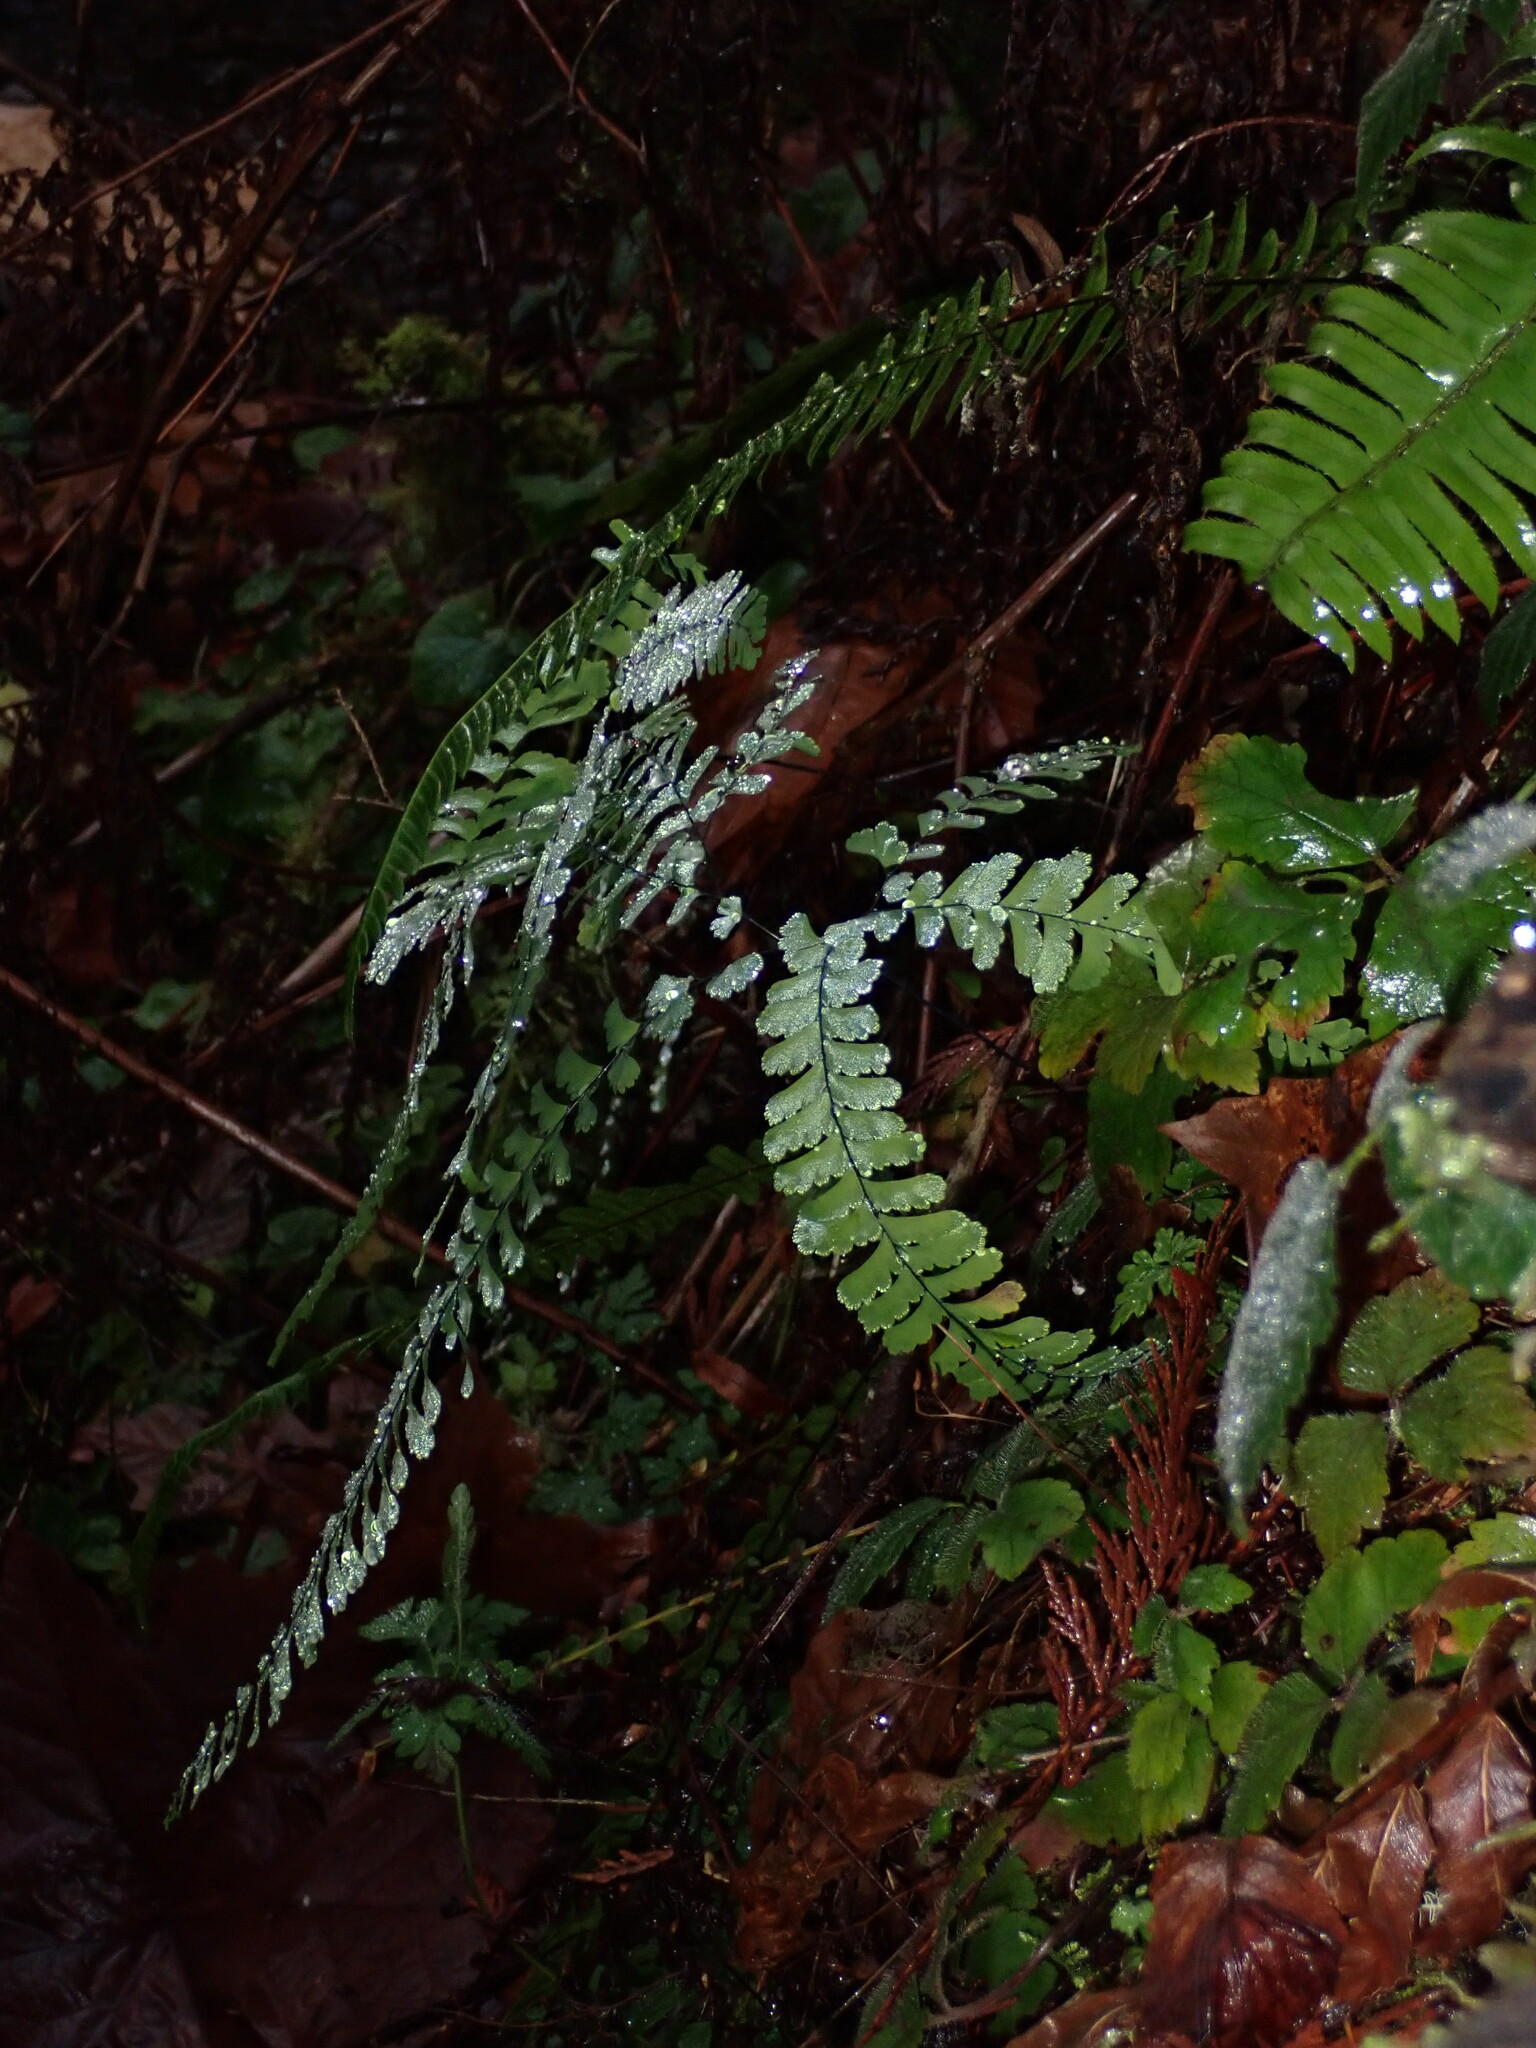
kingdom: Plantae
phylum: Tracheophyta
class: Polypodiopsida
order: Polypodiales
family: Pteridaceae
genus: Adiantum
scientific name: Adiantum aleuticum
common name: Aleutian maidenhair fern
